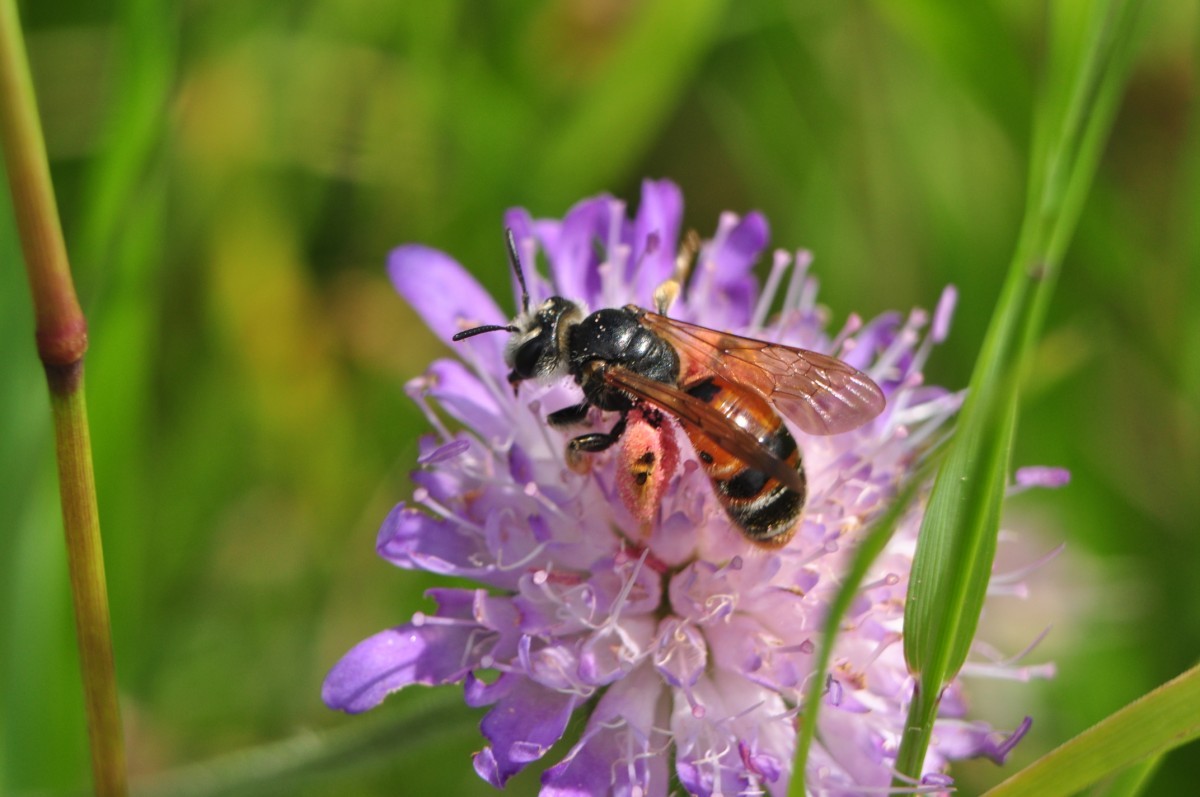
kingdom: Animalia
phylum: Arthropoda
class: Insecta
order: Hymenoptera
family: Andrenidae
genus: Andrena
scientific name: Andrena hattorfiana
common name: Large scabious mining bee
